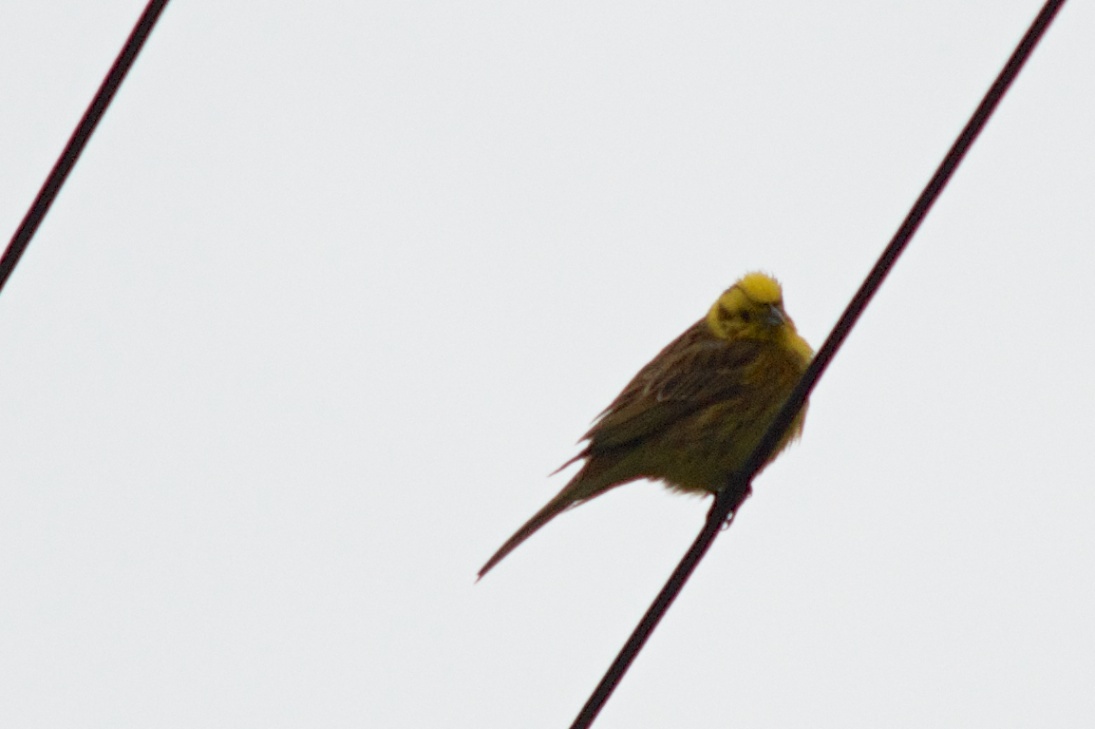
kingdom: Animalia
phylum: Chordata
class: Aves
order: Passeriformes
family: Emberizidae
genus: Emberiza
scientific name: Emberiza citrinella
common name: Yellowhammer
